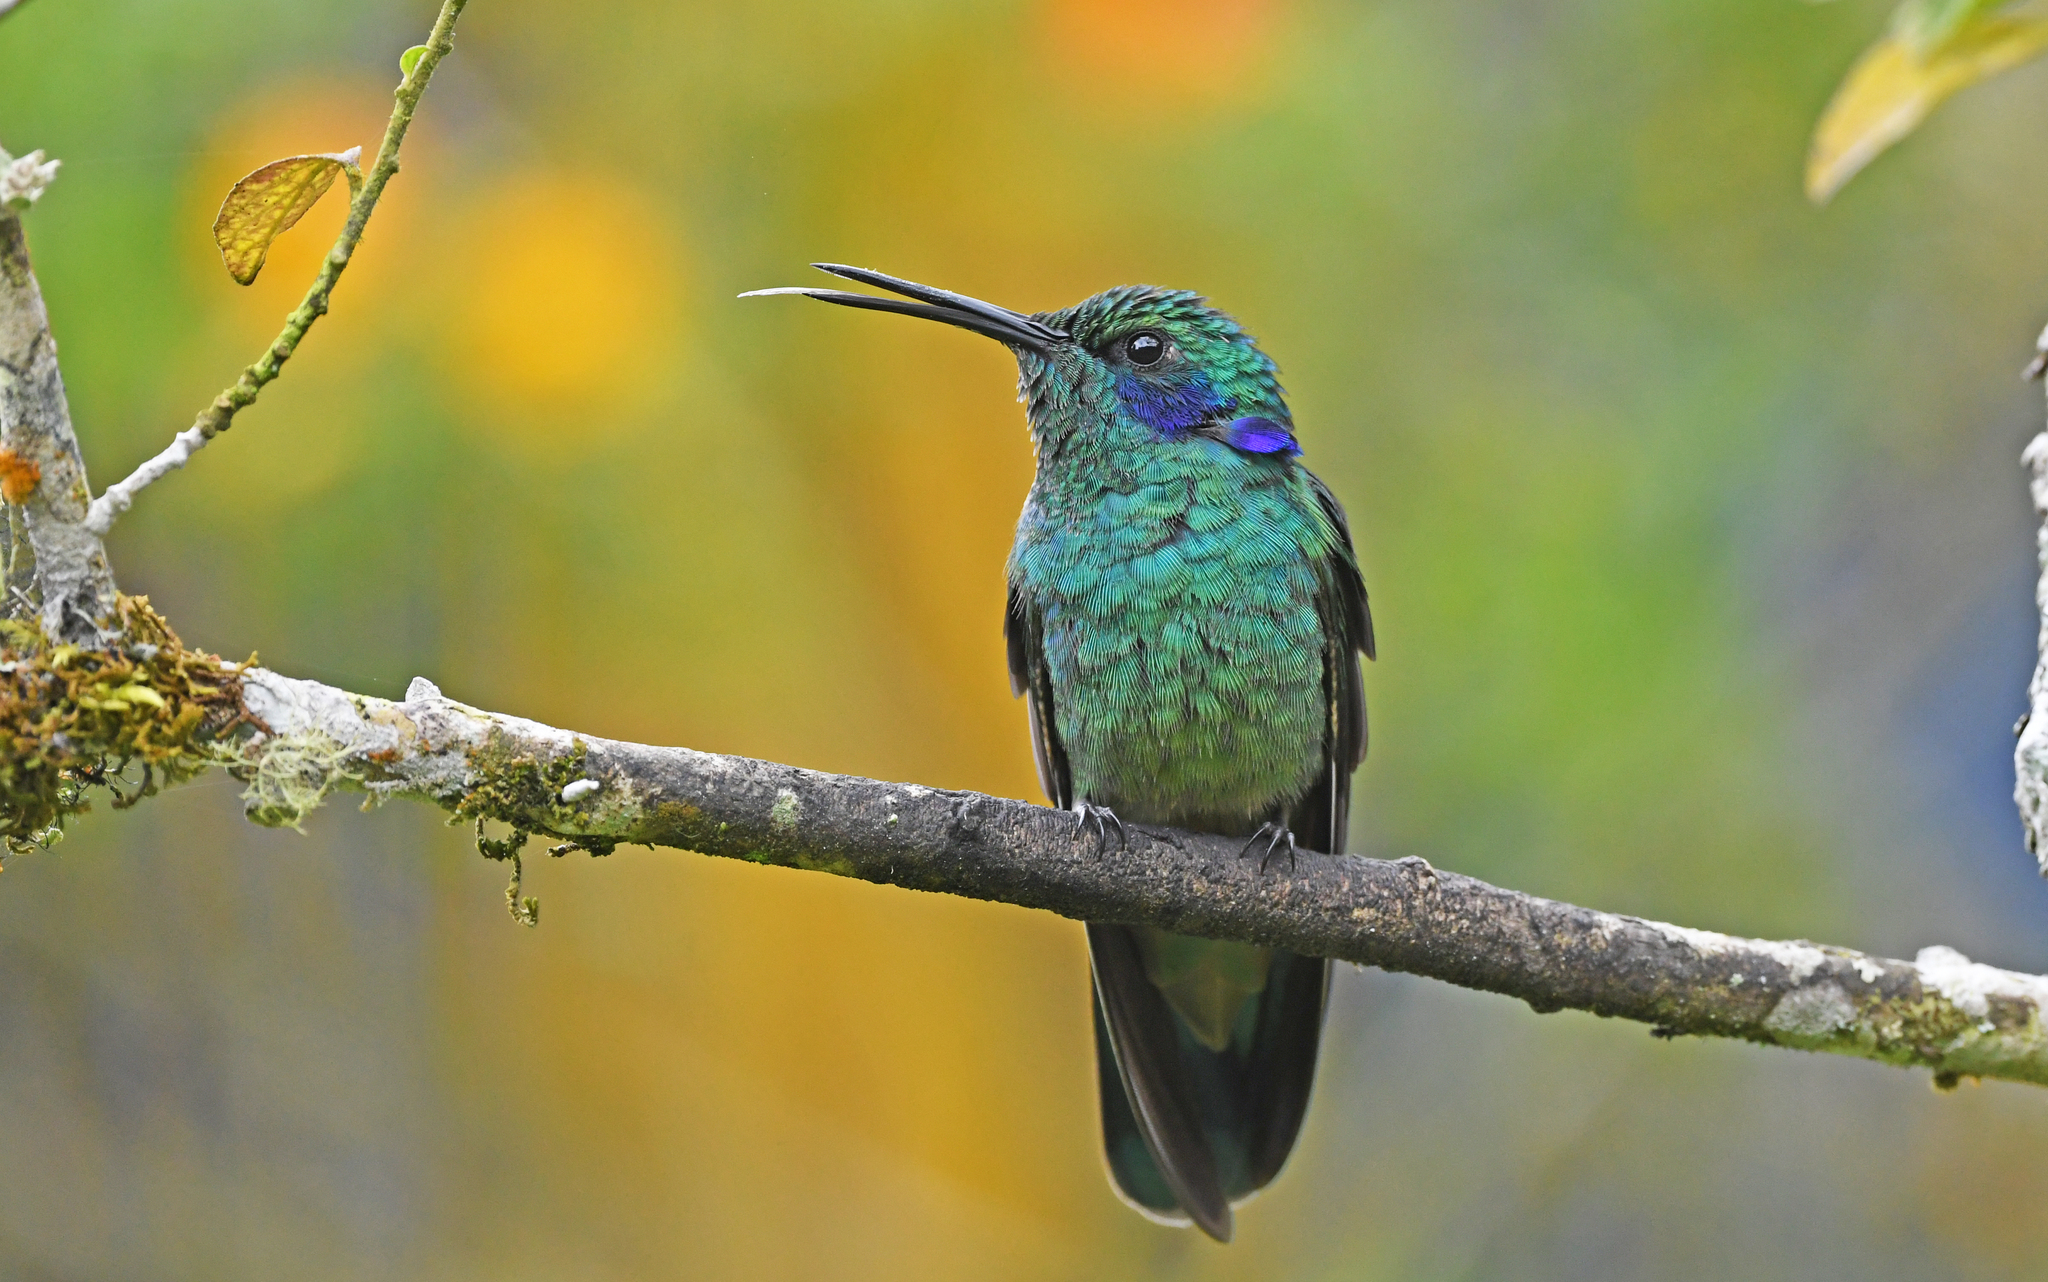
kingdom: Animalia
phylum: Chordata
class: Aves
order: Apodiformes
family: Trochilidae
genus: Colibri
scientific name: Colibri cyanotus
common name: Lesser violetear
